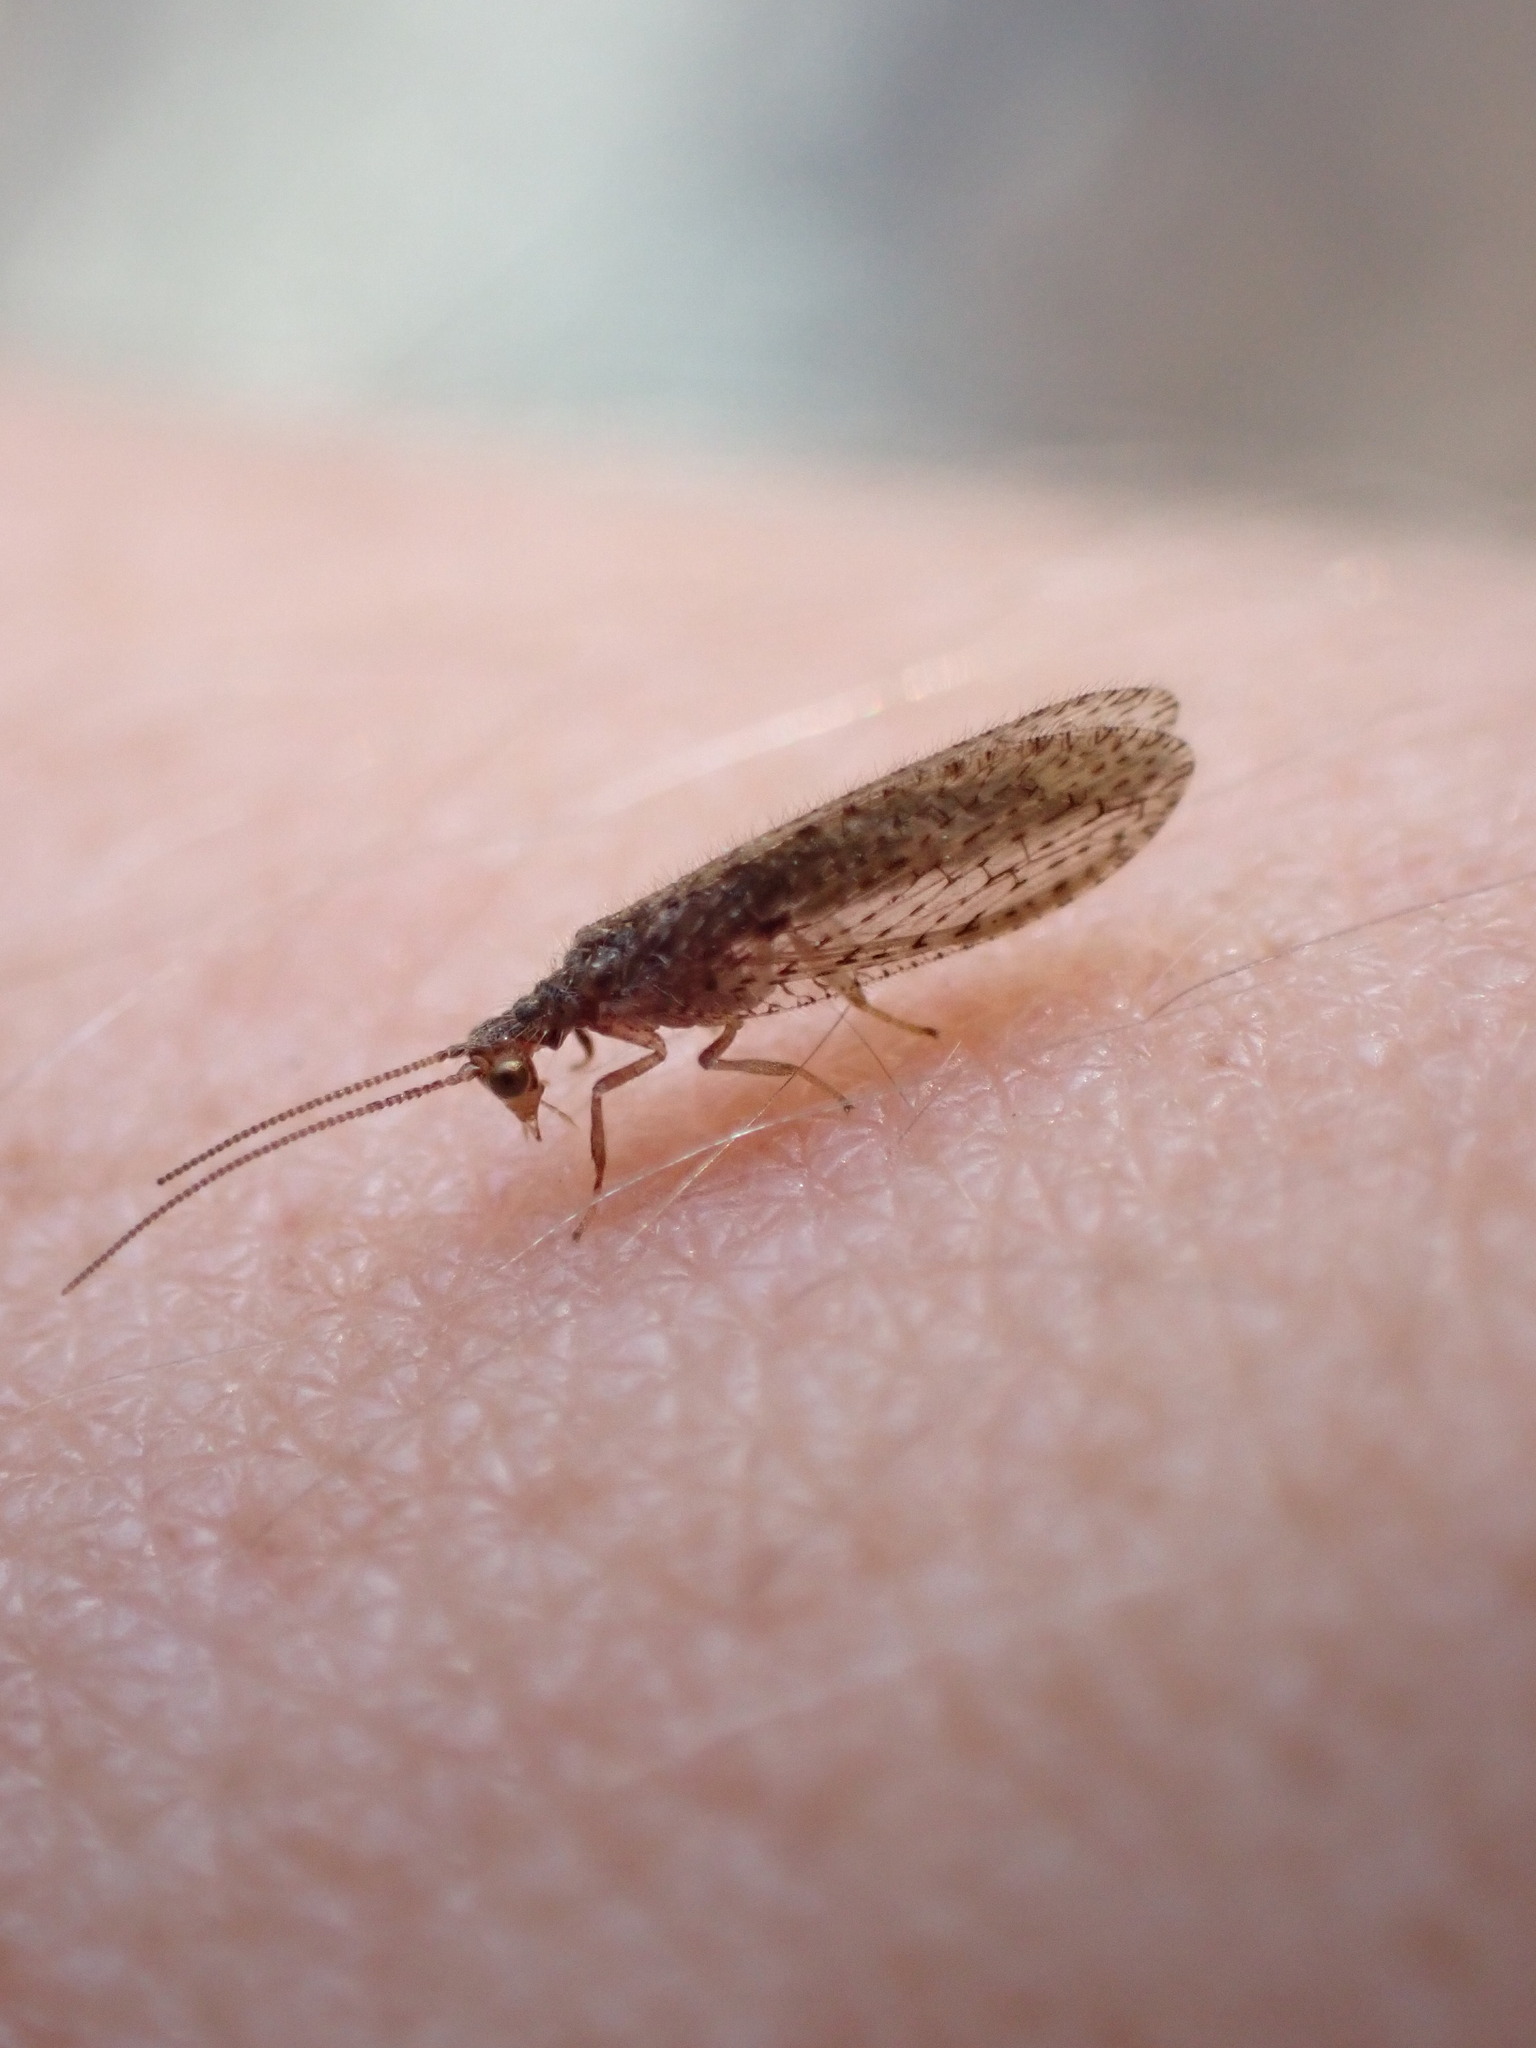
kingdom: Animalia
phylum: Arthropoda
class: Insecta
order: Neuroptera
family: Hemerobiidae
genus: Micromus
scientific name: Micromus tasmaniae
